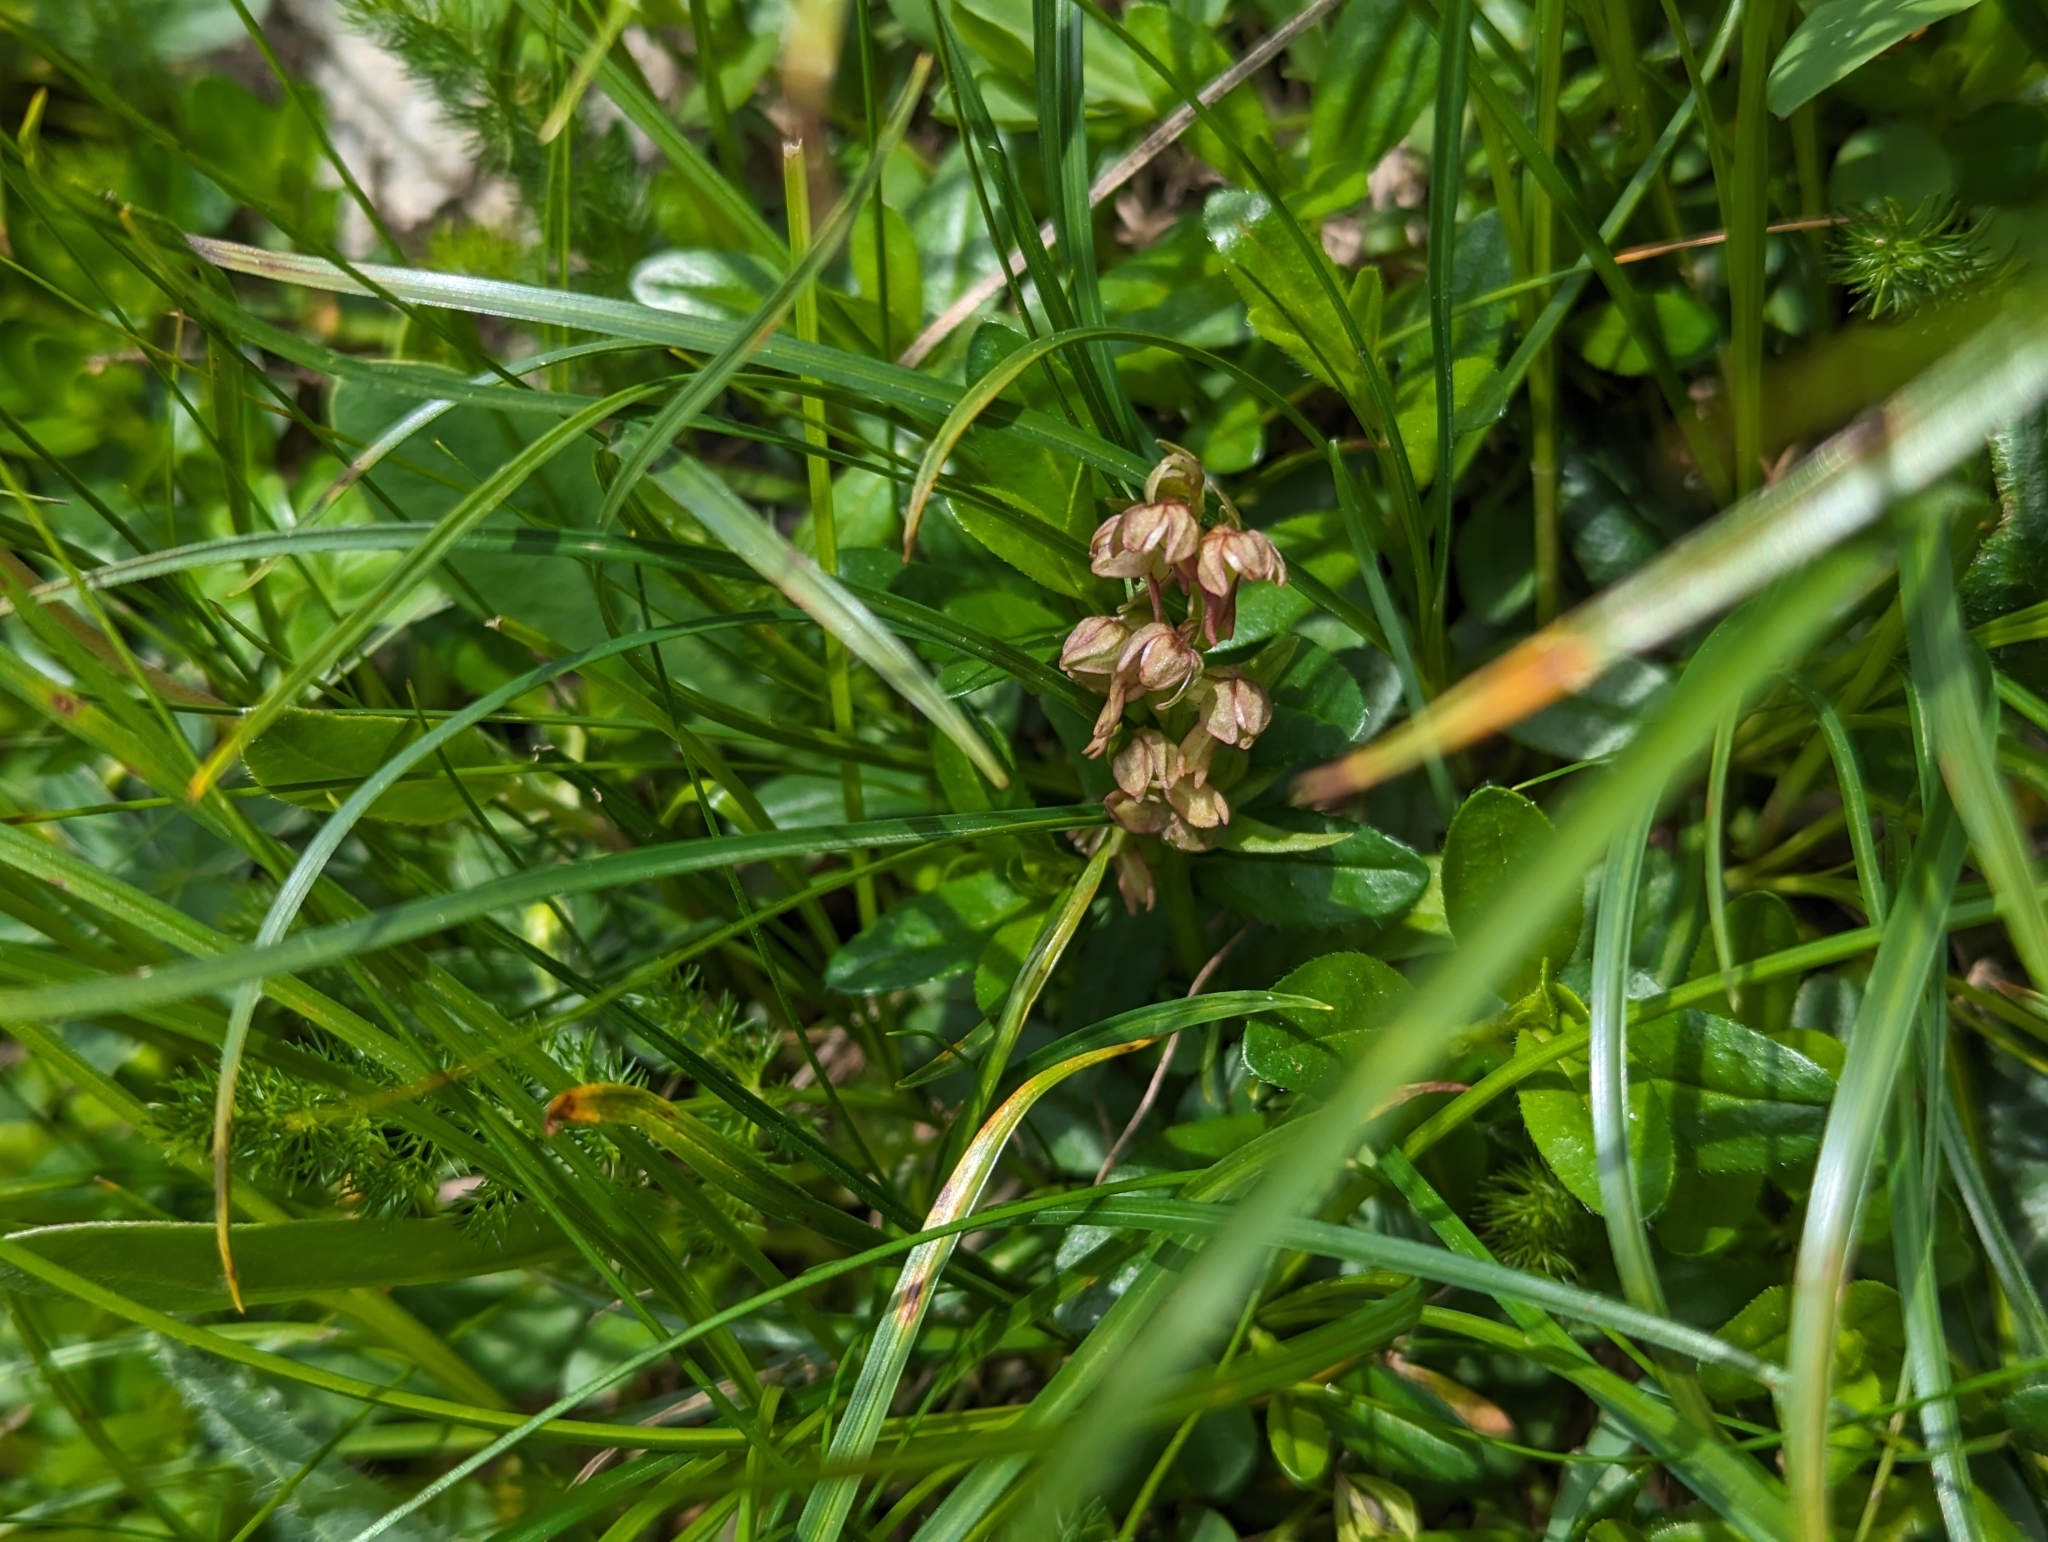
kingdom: Plantae
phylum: Tracheophyta
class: Liliopsida
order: Asparagales
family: Orchidaceae
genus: Dactylorhiza
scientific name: Dactylorhiza viridis
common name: Longbract frog orchid
